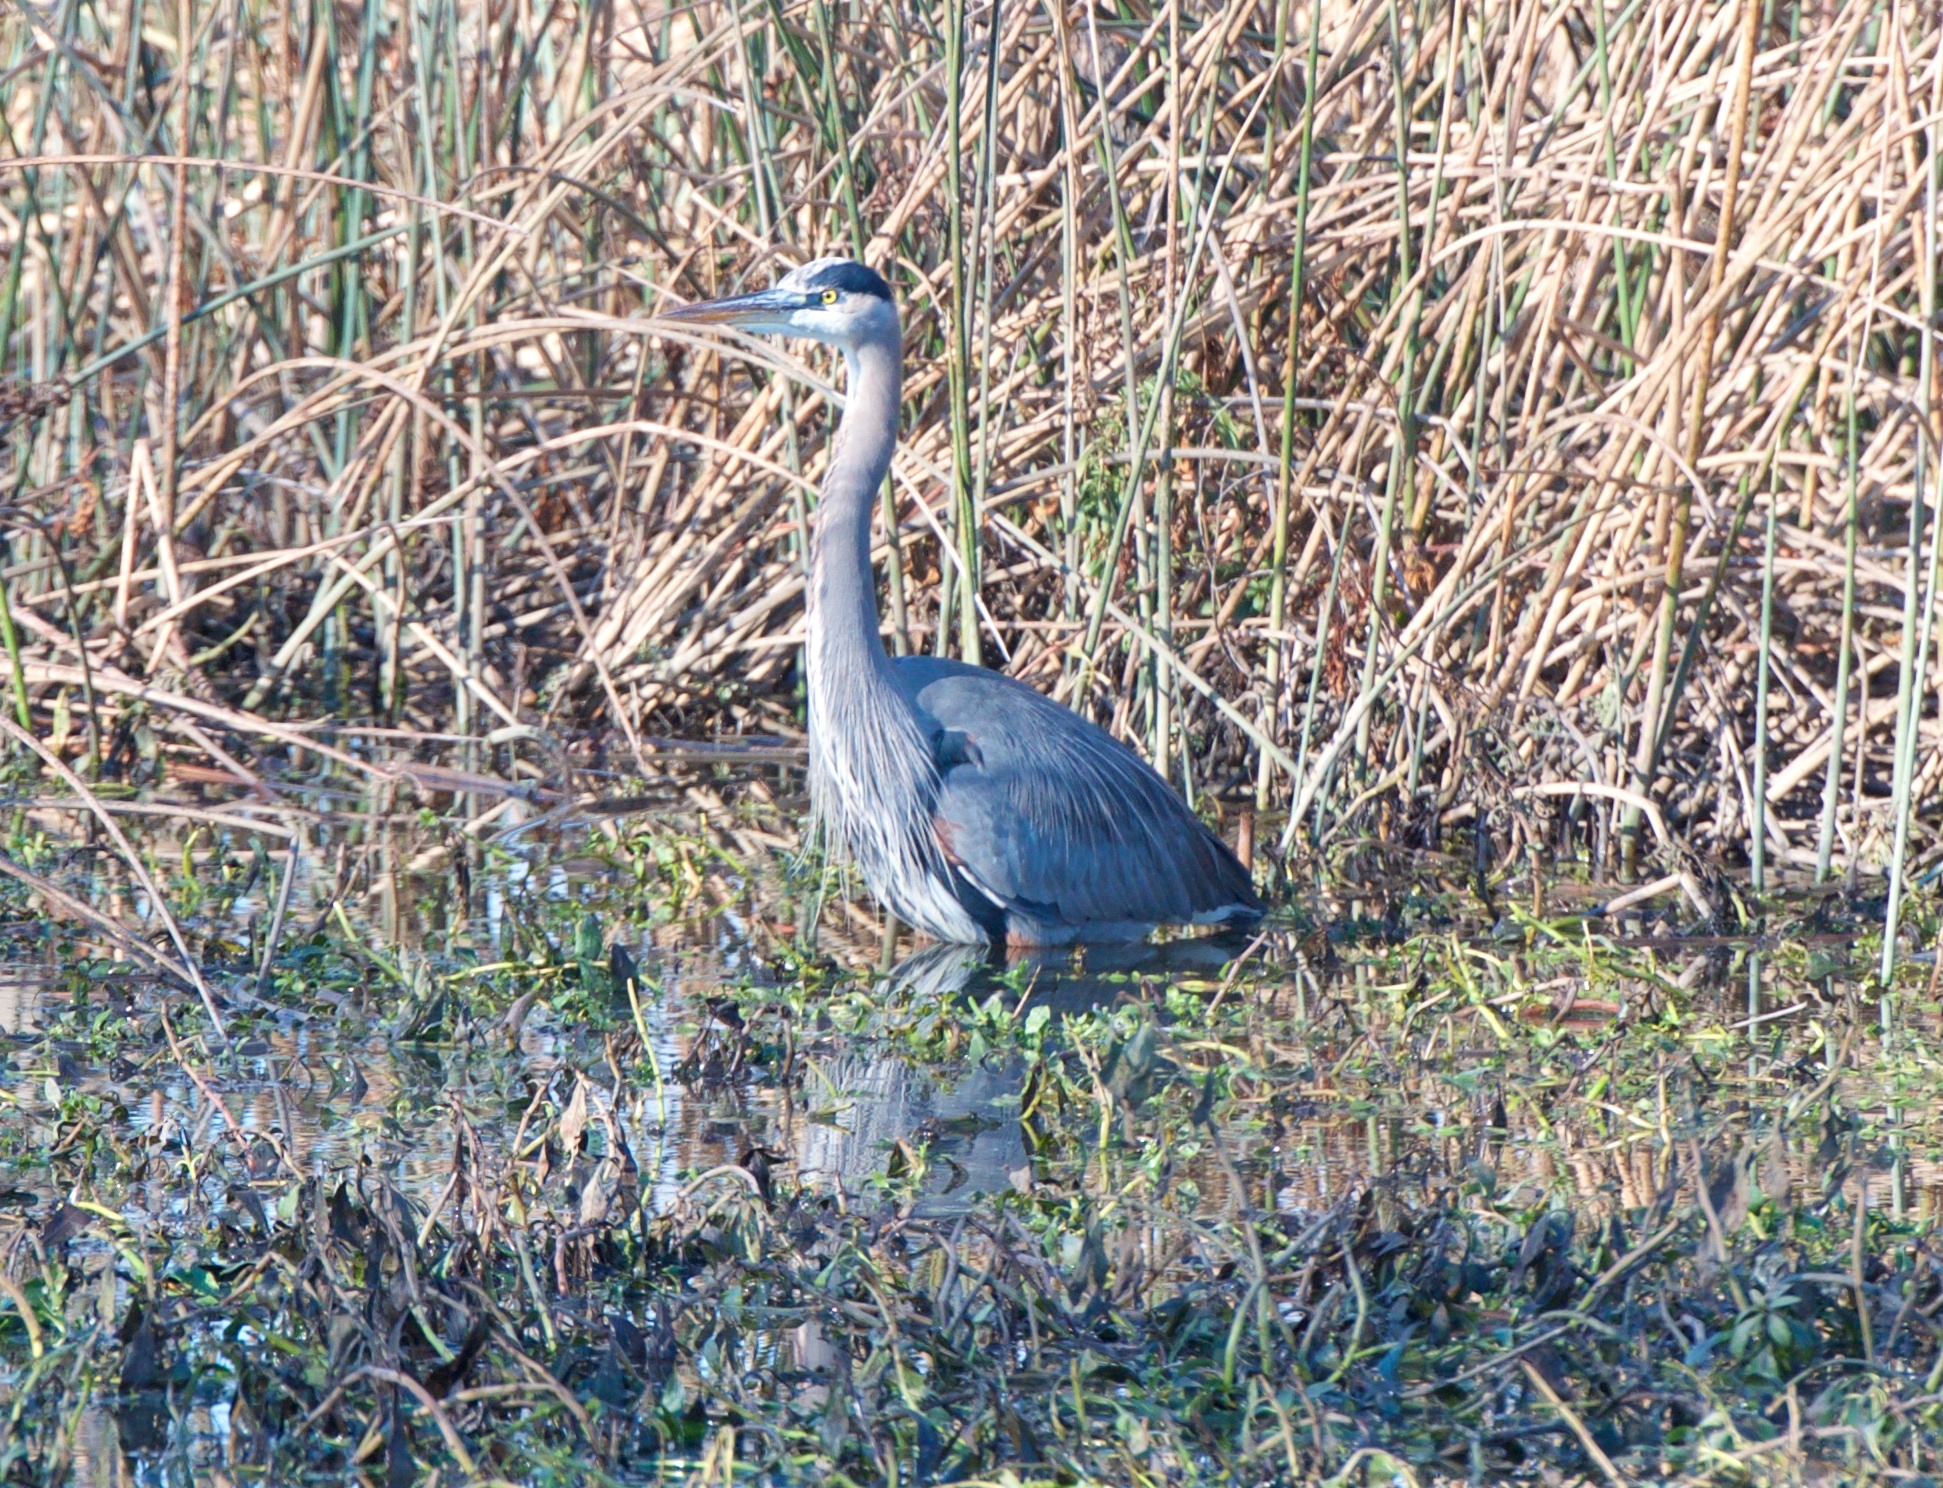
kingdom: Animalia
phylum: Chordata
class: Aves
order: Pelecaniformes
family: Ardeidae
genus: Ardea
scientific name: Ardea herodias
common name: Great blue heron
